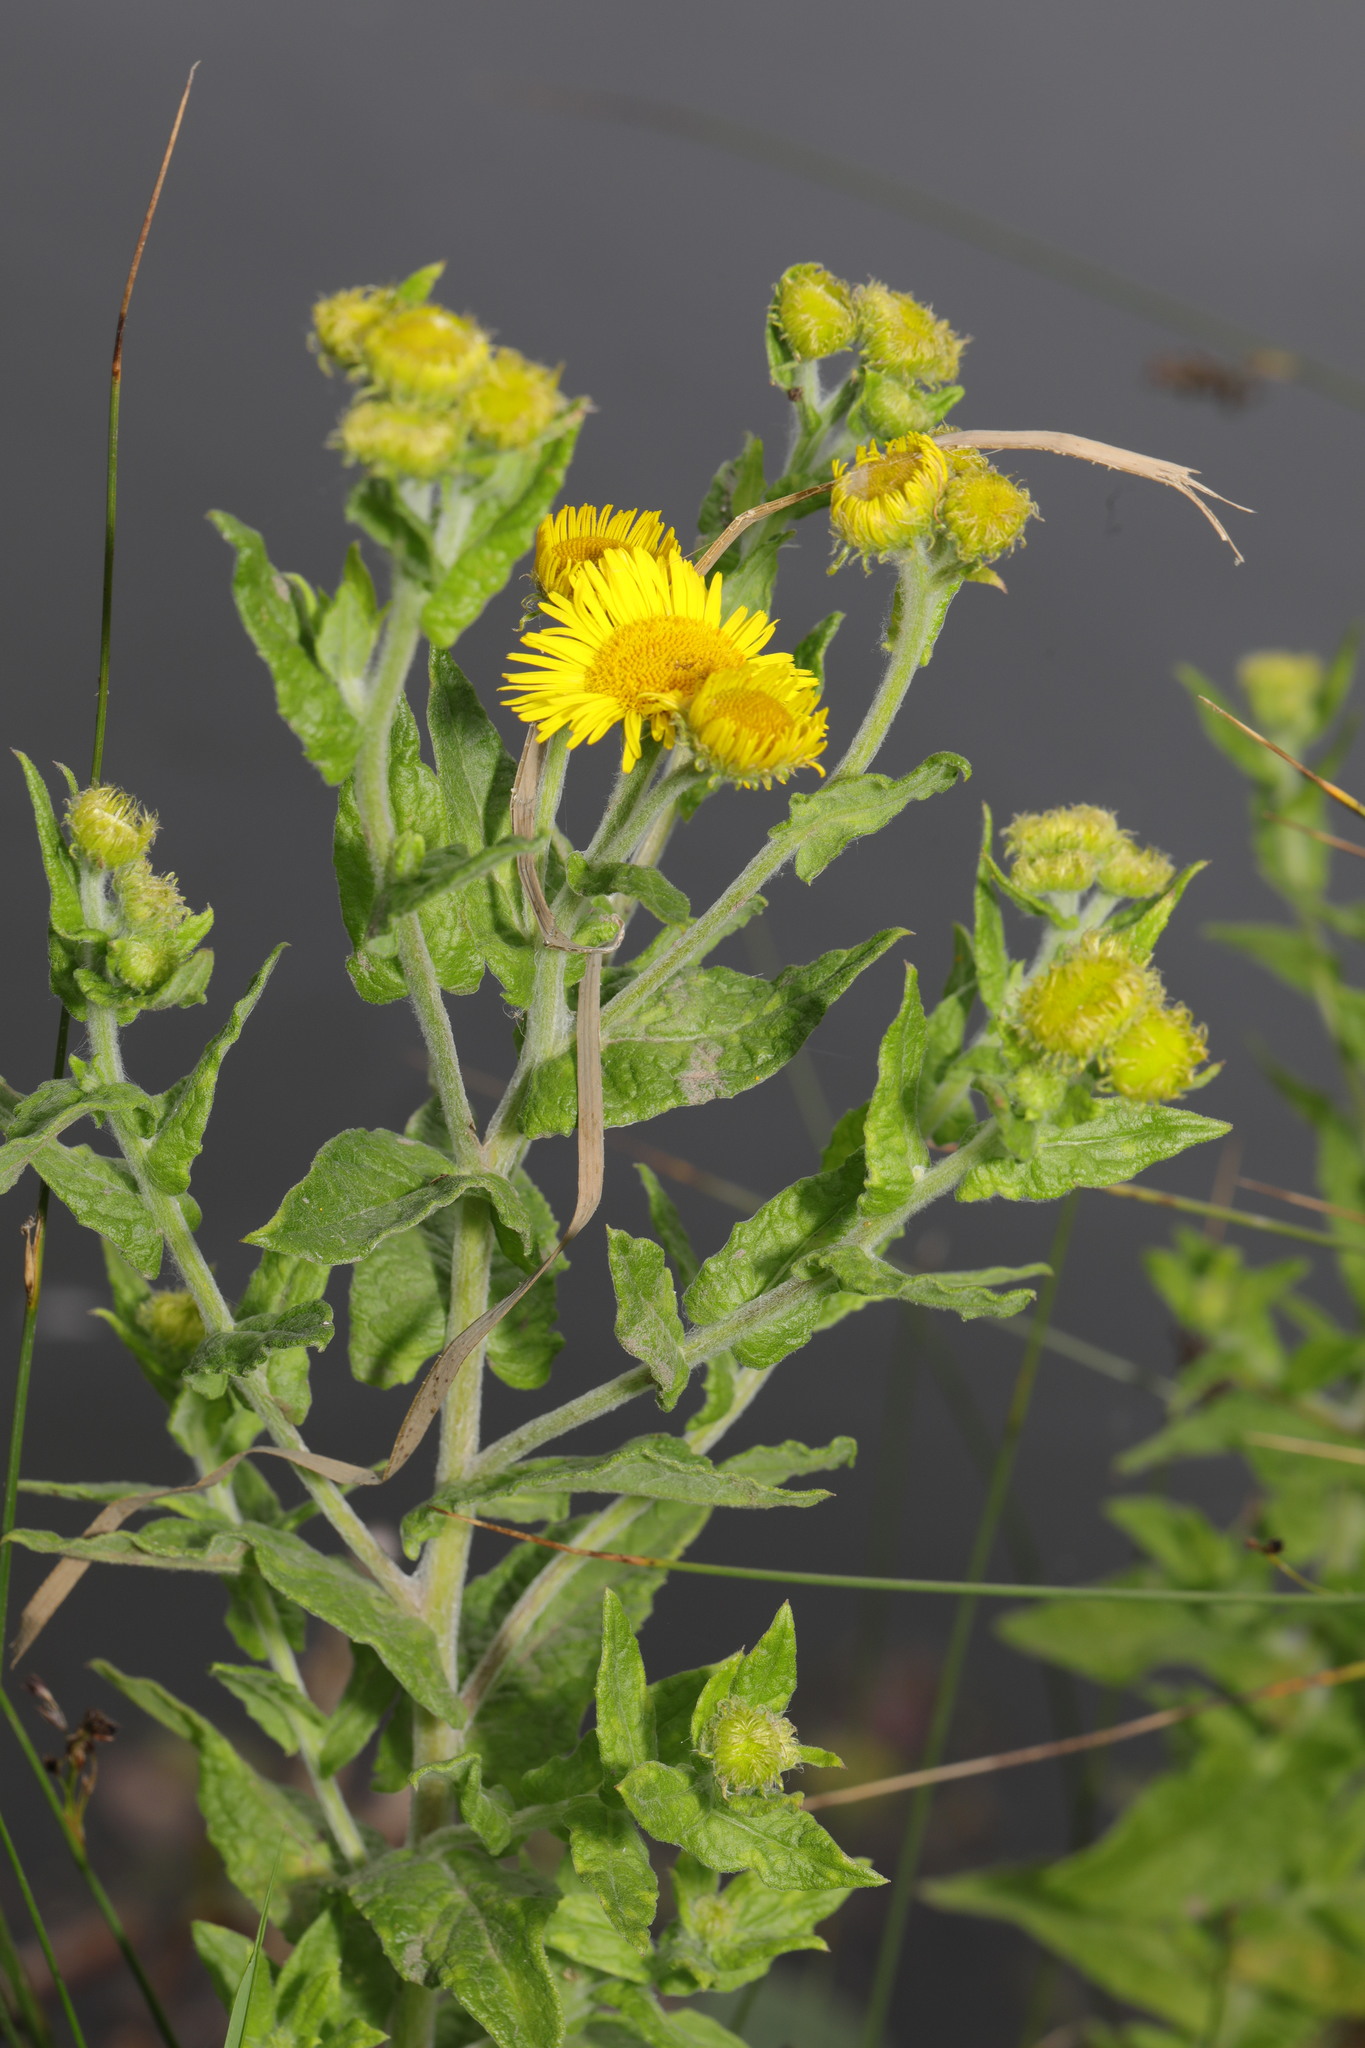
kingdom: Plantae
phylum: Tracheophyta
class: Magnoliopsida
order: Asterales
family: Asteraceae
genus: Pulicaria
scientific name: Pulicaria dysenterica
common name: Common fleabane
